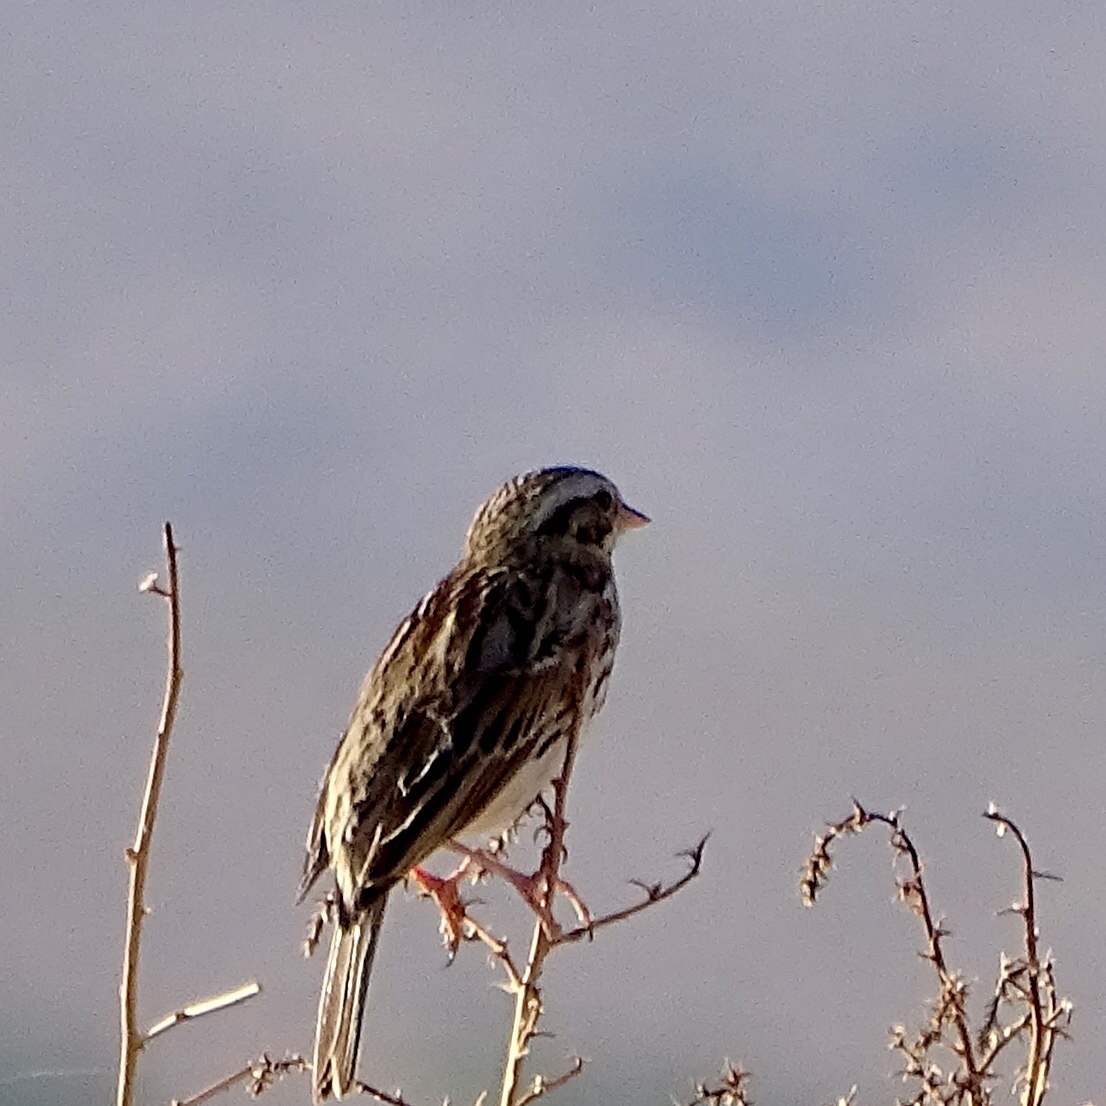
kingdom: Animalia
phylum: Chordata
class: Aves
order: Passeriformes
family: Passerellidae
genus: Passerculus
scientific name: Passerculus sandwichensis
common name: Savannah sparrow
